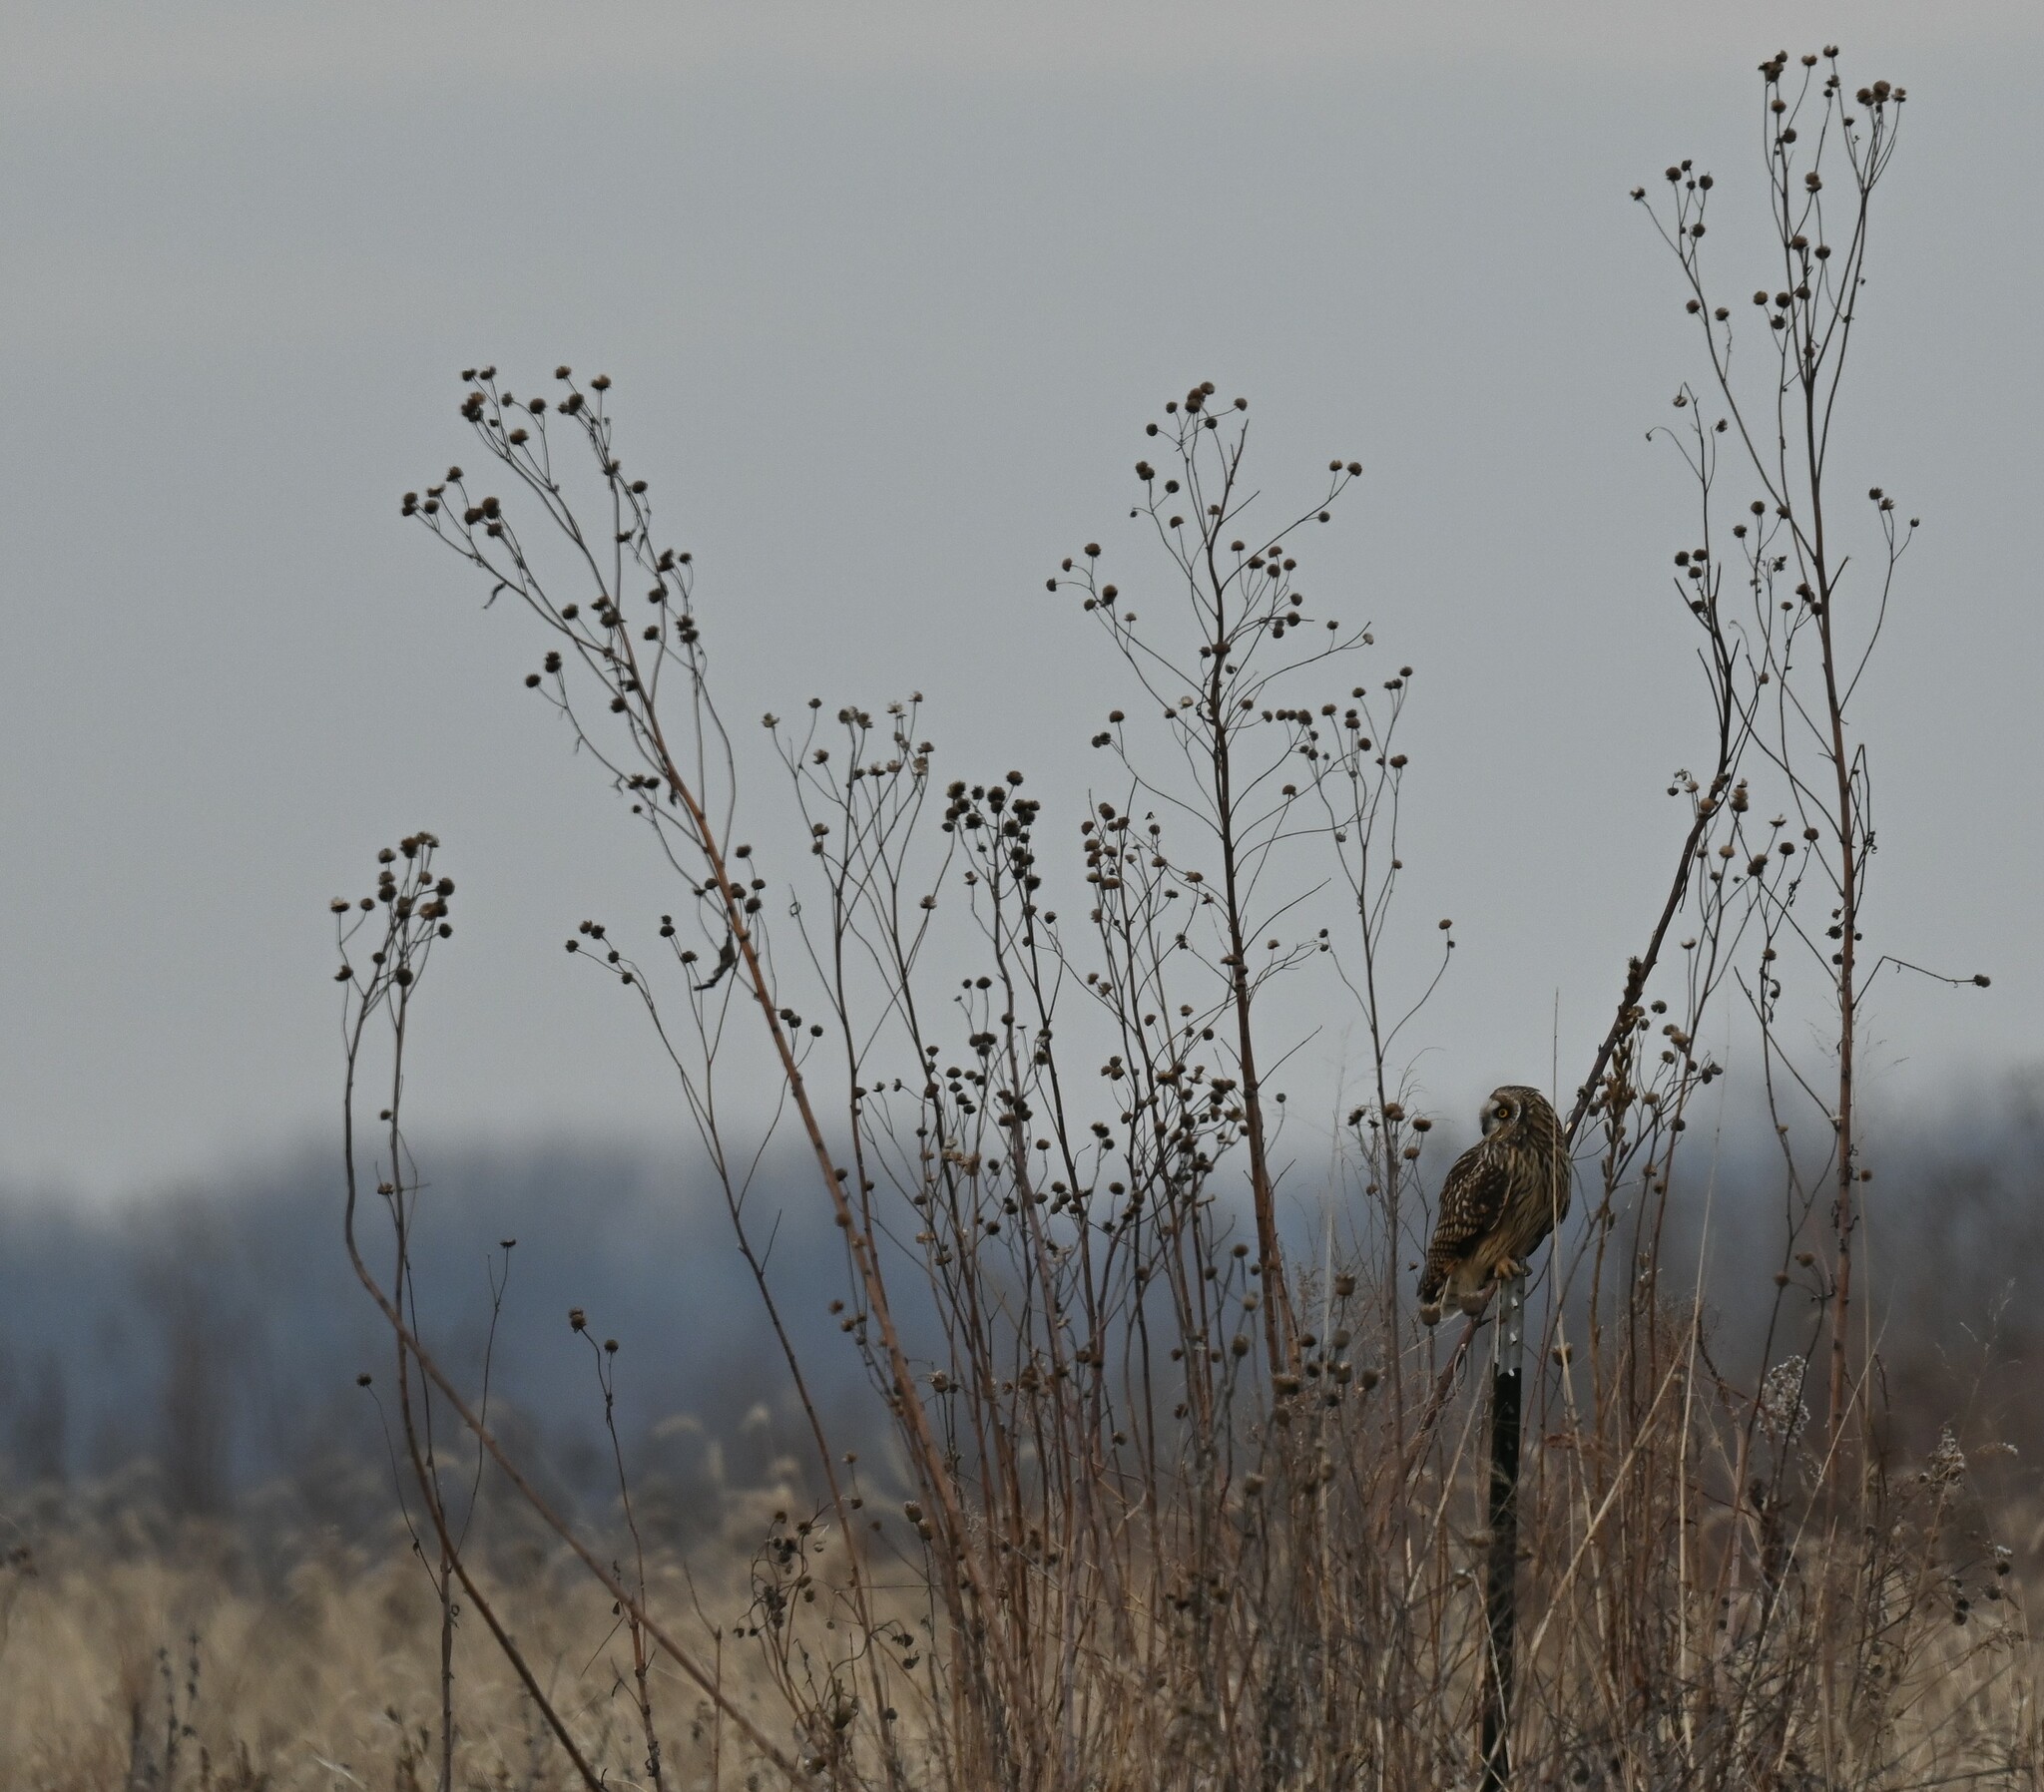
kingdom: Animalia
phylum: Chordata
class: Aves
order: Strigiformes
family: Strigidae
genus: Asio
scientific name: Asio flammeus
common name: Short-eared owl
